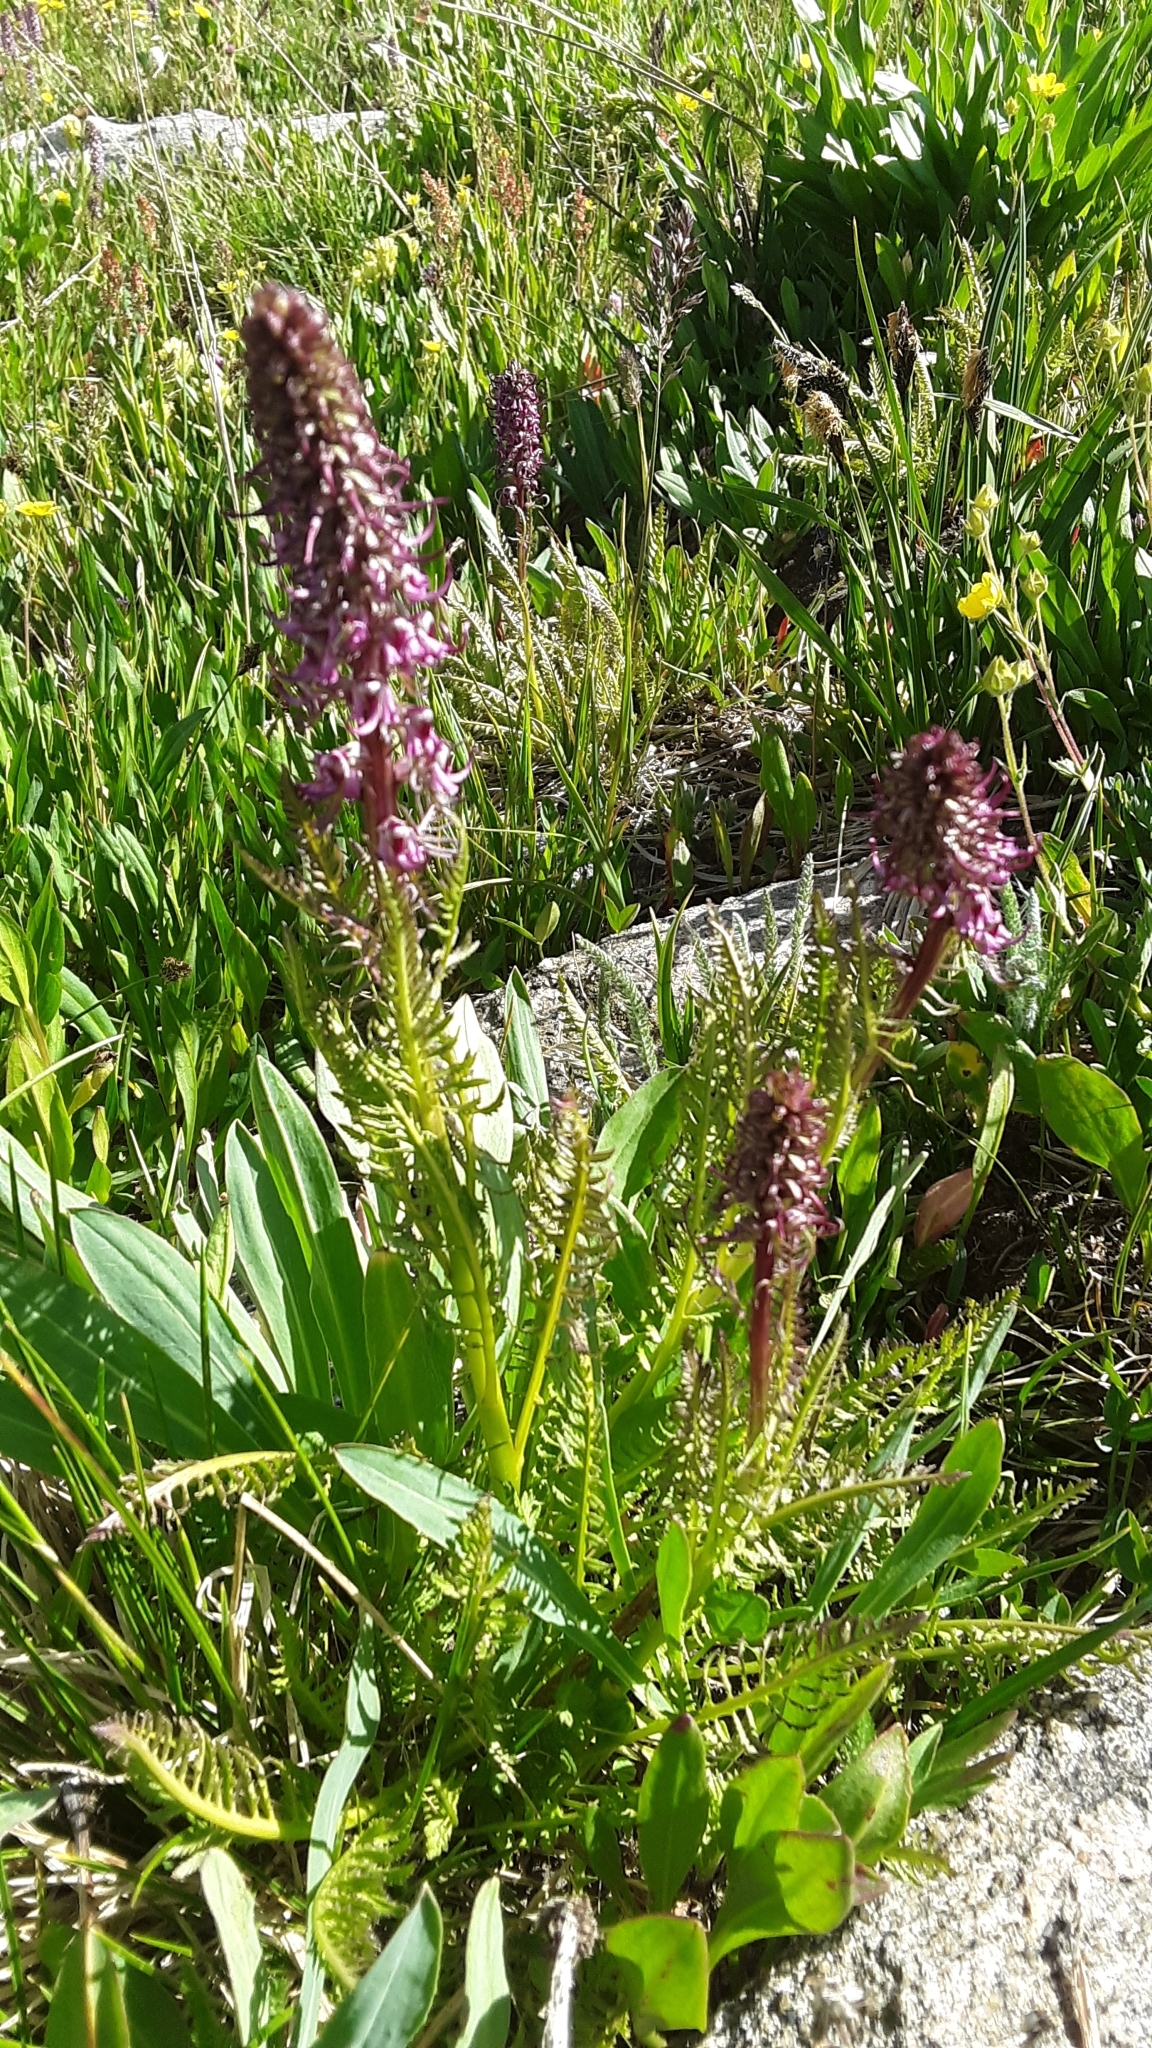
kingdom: Plantae
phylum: Tracheophyta
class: Magnoliopsida
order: Lamiales
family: Orobanchaceae
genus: Pedicularis
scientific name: Pedicularis groenlandica
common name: Elephant's-head
